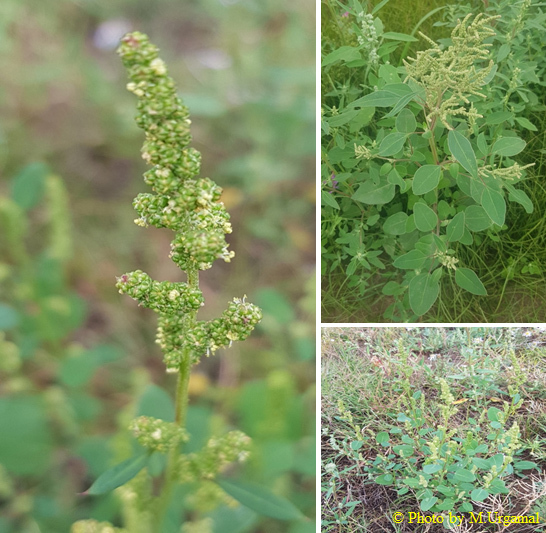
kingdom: Plantae
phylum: Tracheophyta
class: Magnoliopsida
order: Caryophyllales
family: Amaranthaceae
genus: Chenopodium
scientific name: Chenopodium acuminatum
